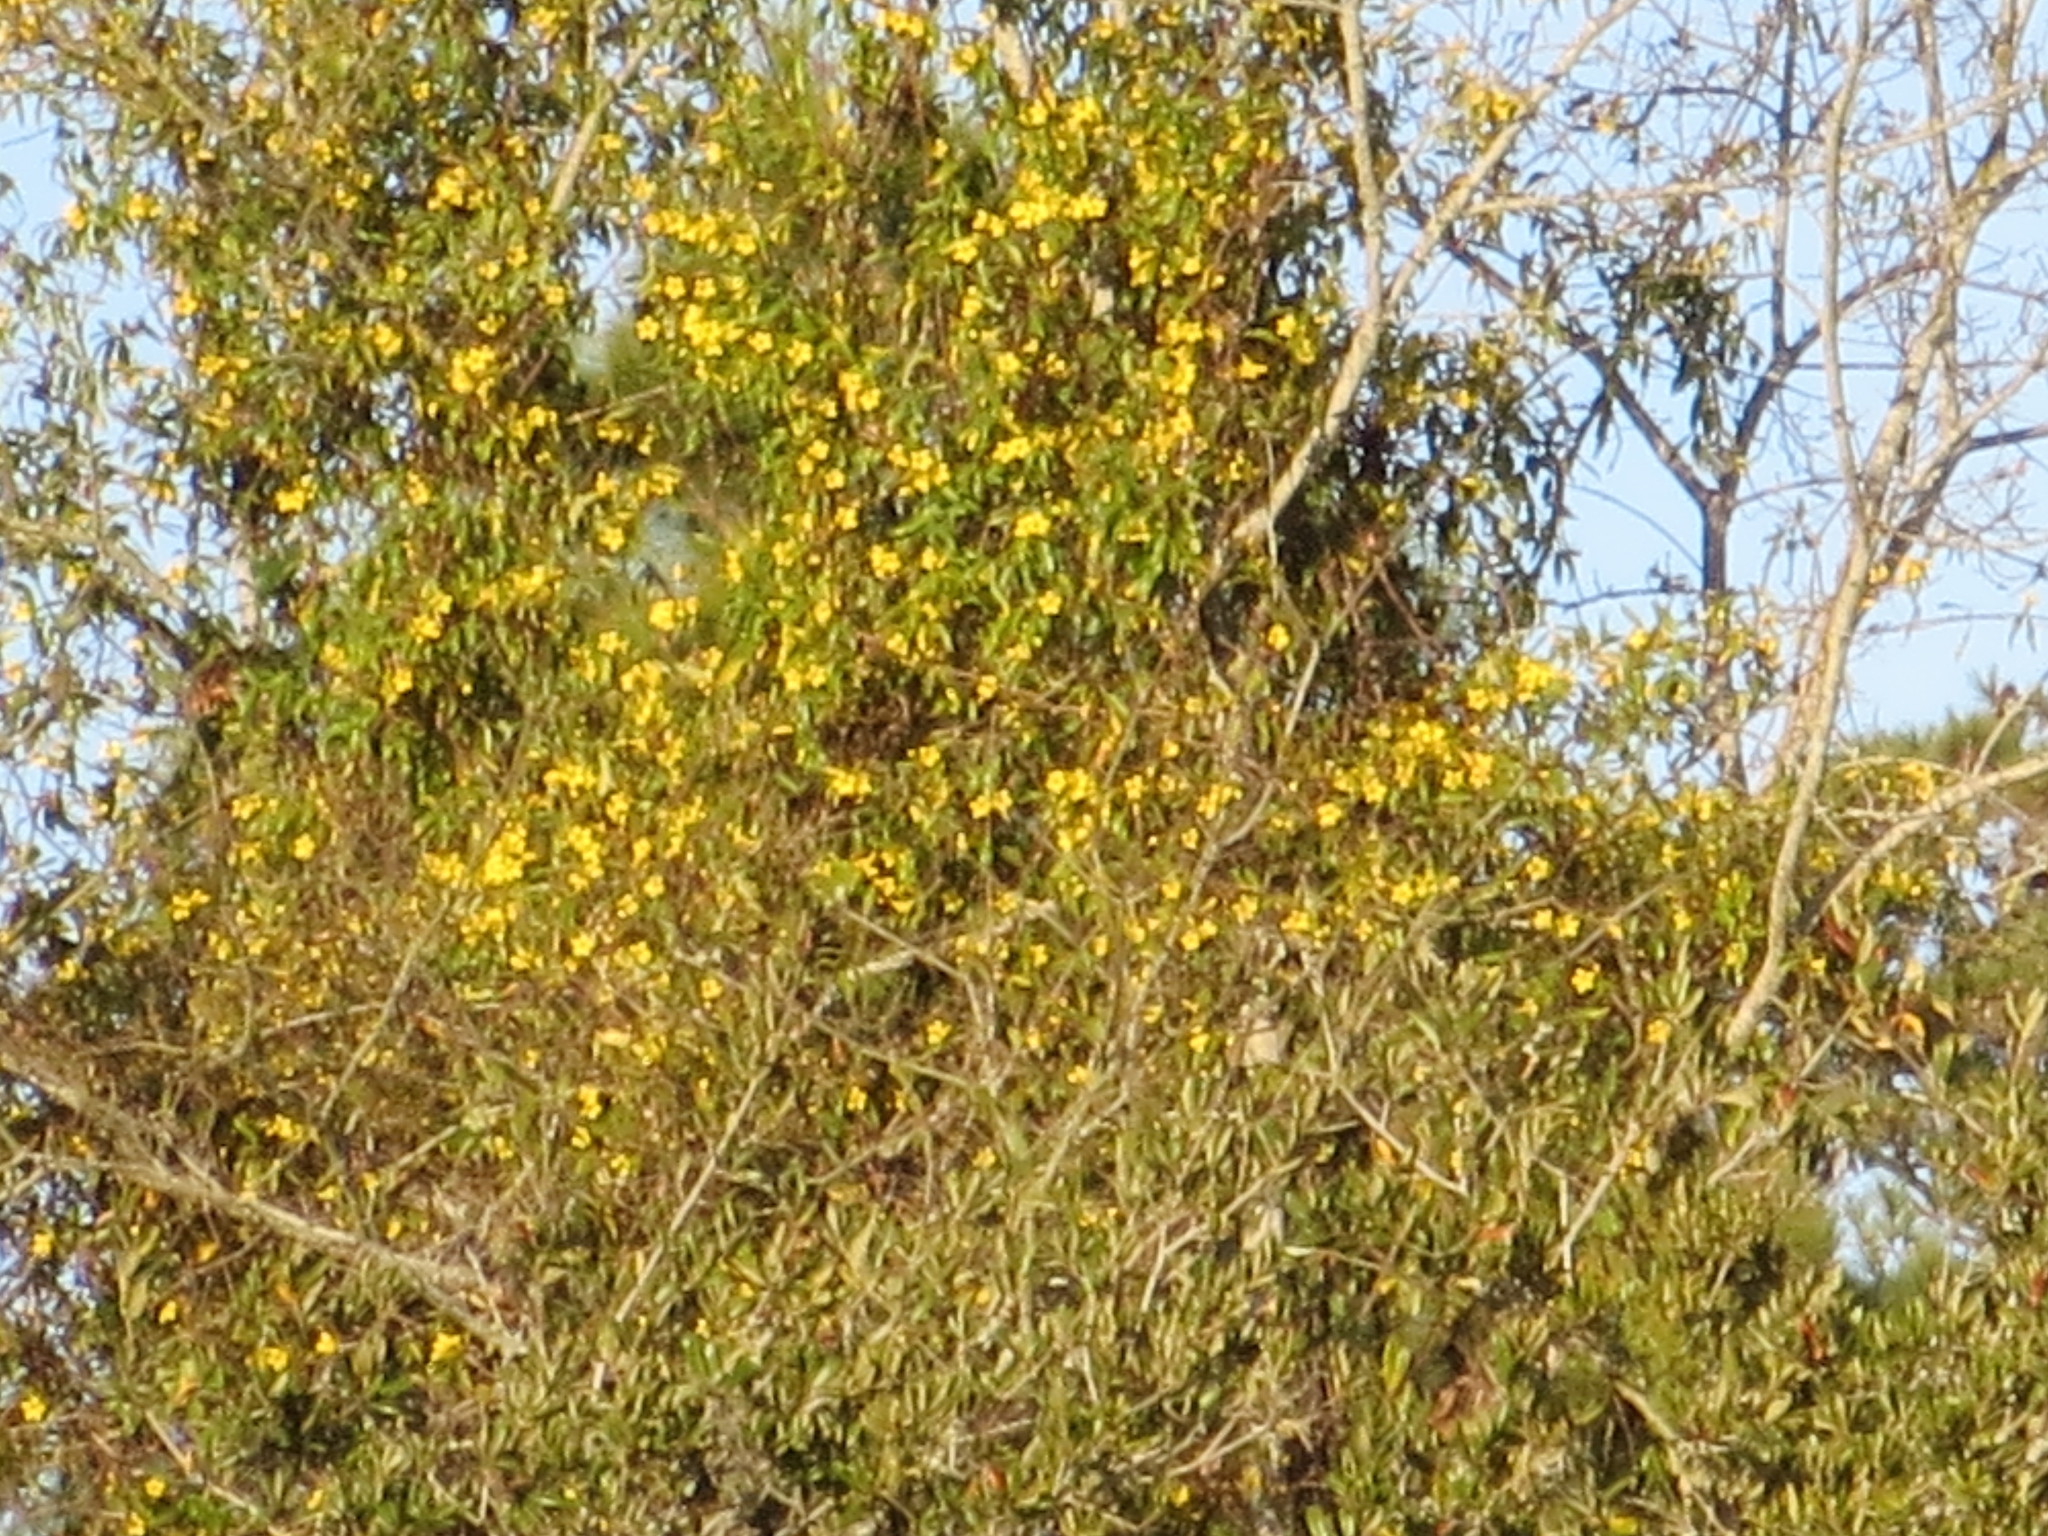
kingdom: Plantae
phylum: Tracheophyta
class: Magnoliopsida
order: Gentianales
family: Gelsemiaceae
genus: Gelsemium
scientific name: Gelsemium sempervirens
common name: Carolina-jasmine
